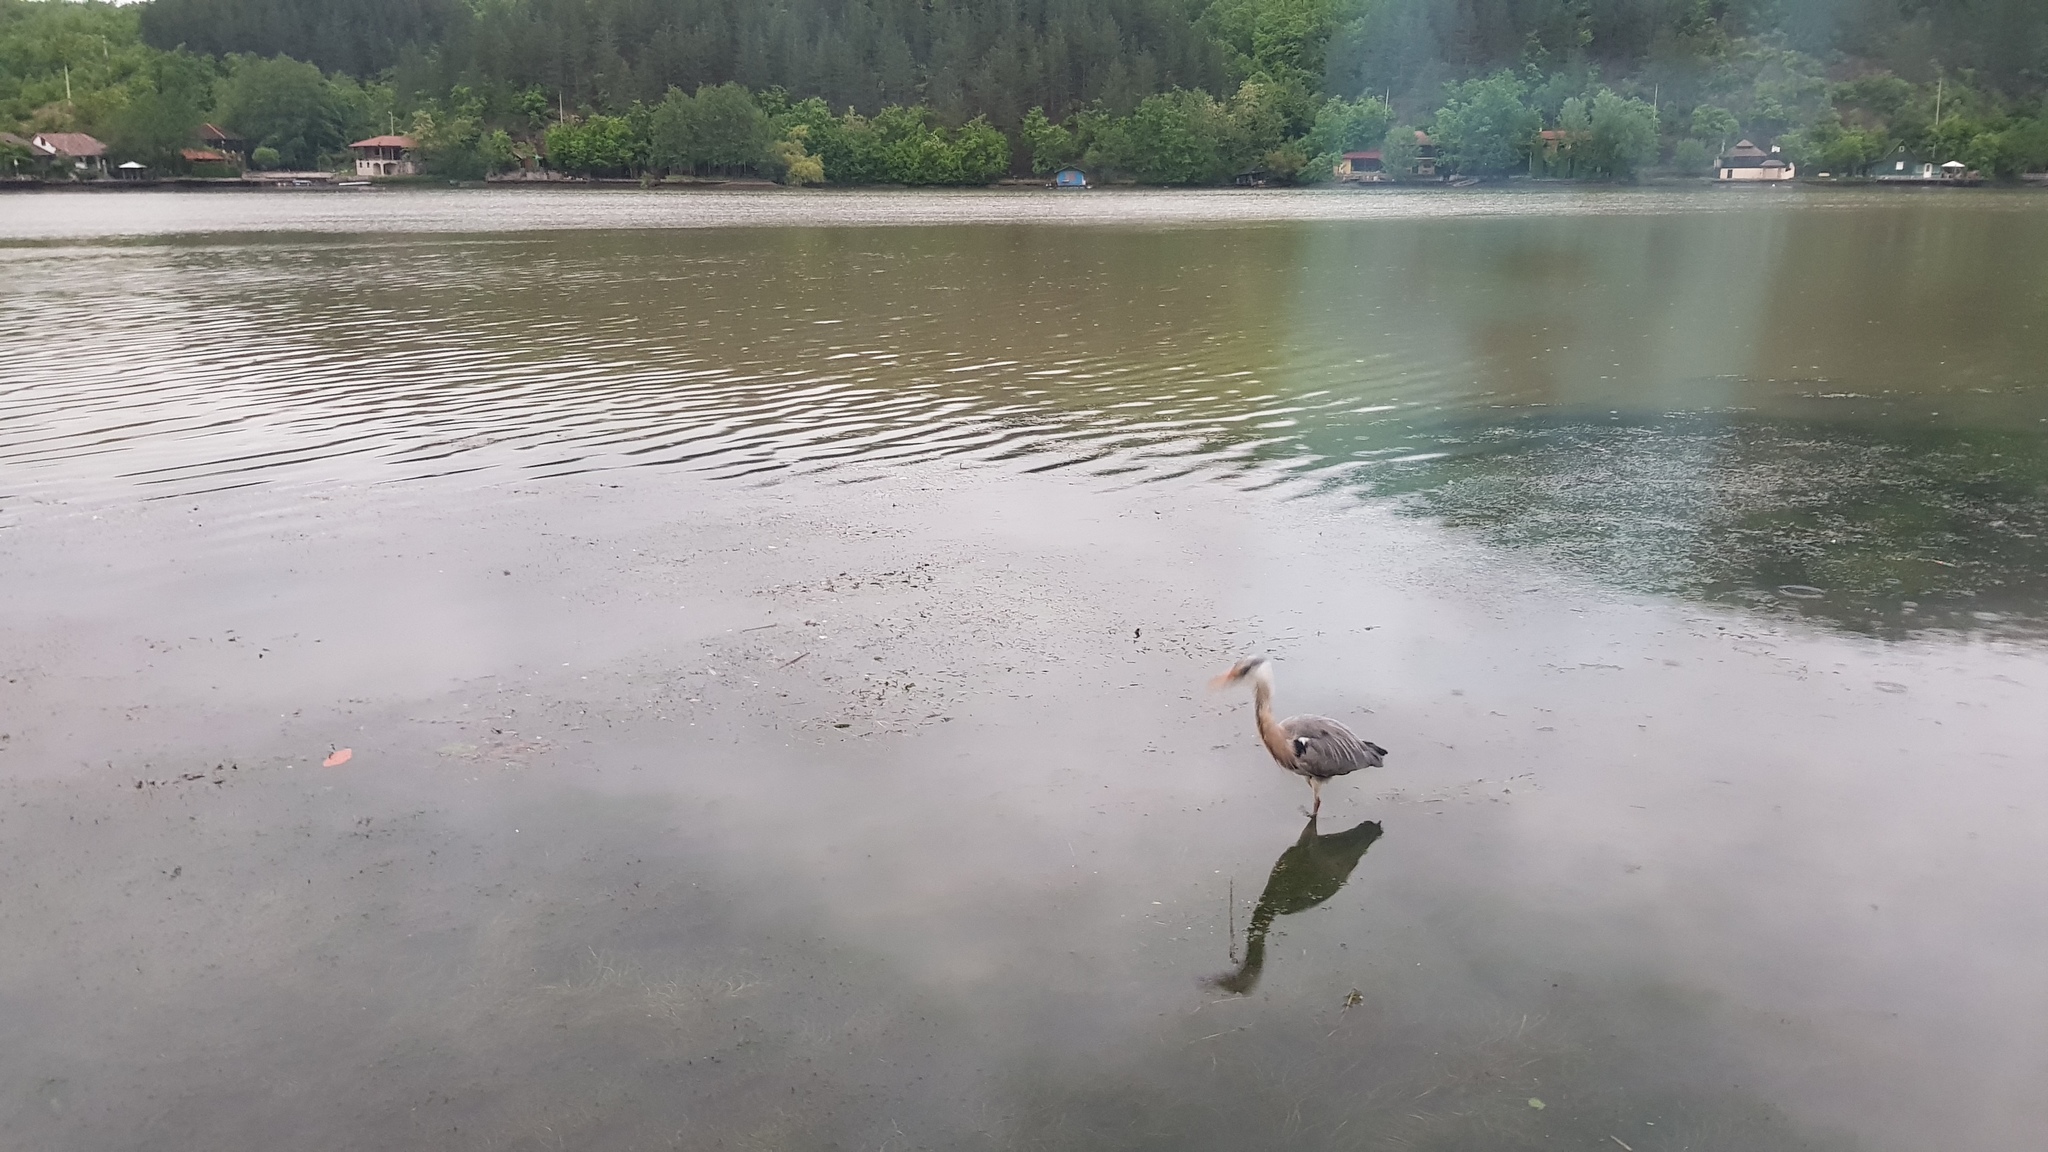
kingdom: Animalia
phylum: Chordata
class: Aves
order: Pelecaniformes
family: Ardeidae
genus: Ardea
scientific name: Ardea cinerea
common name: Grey heron
